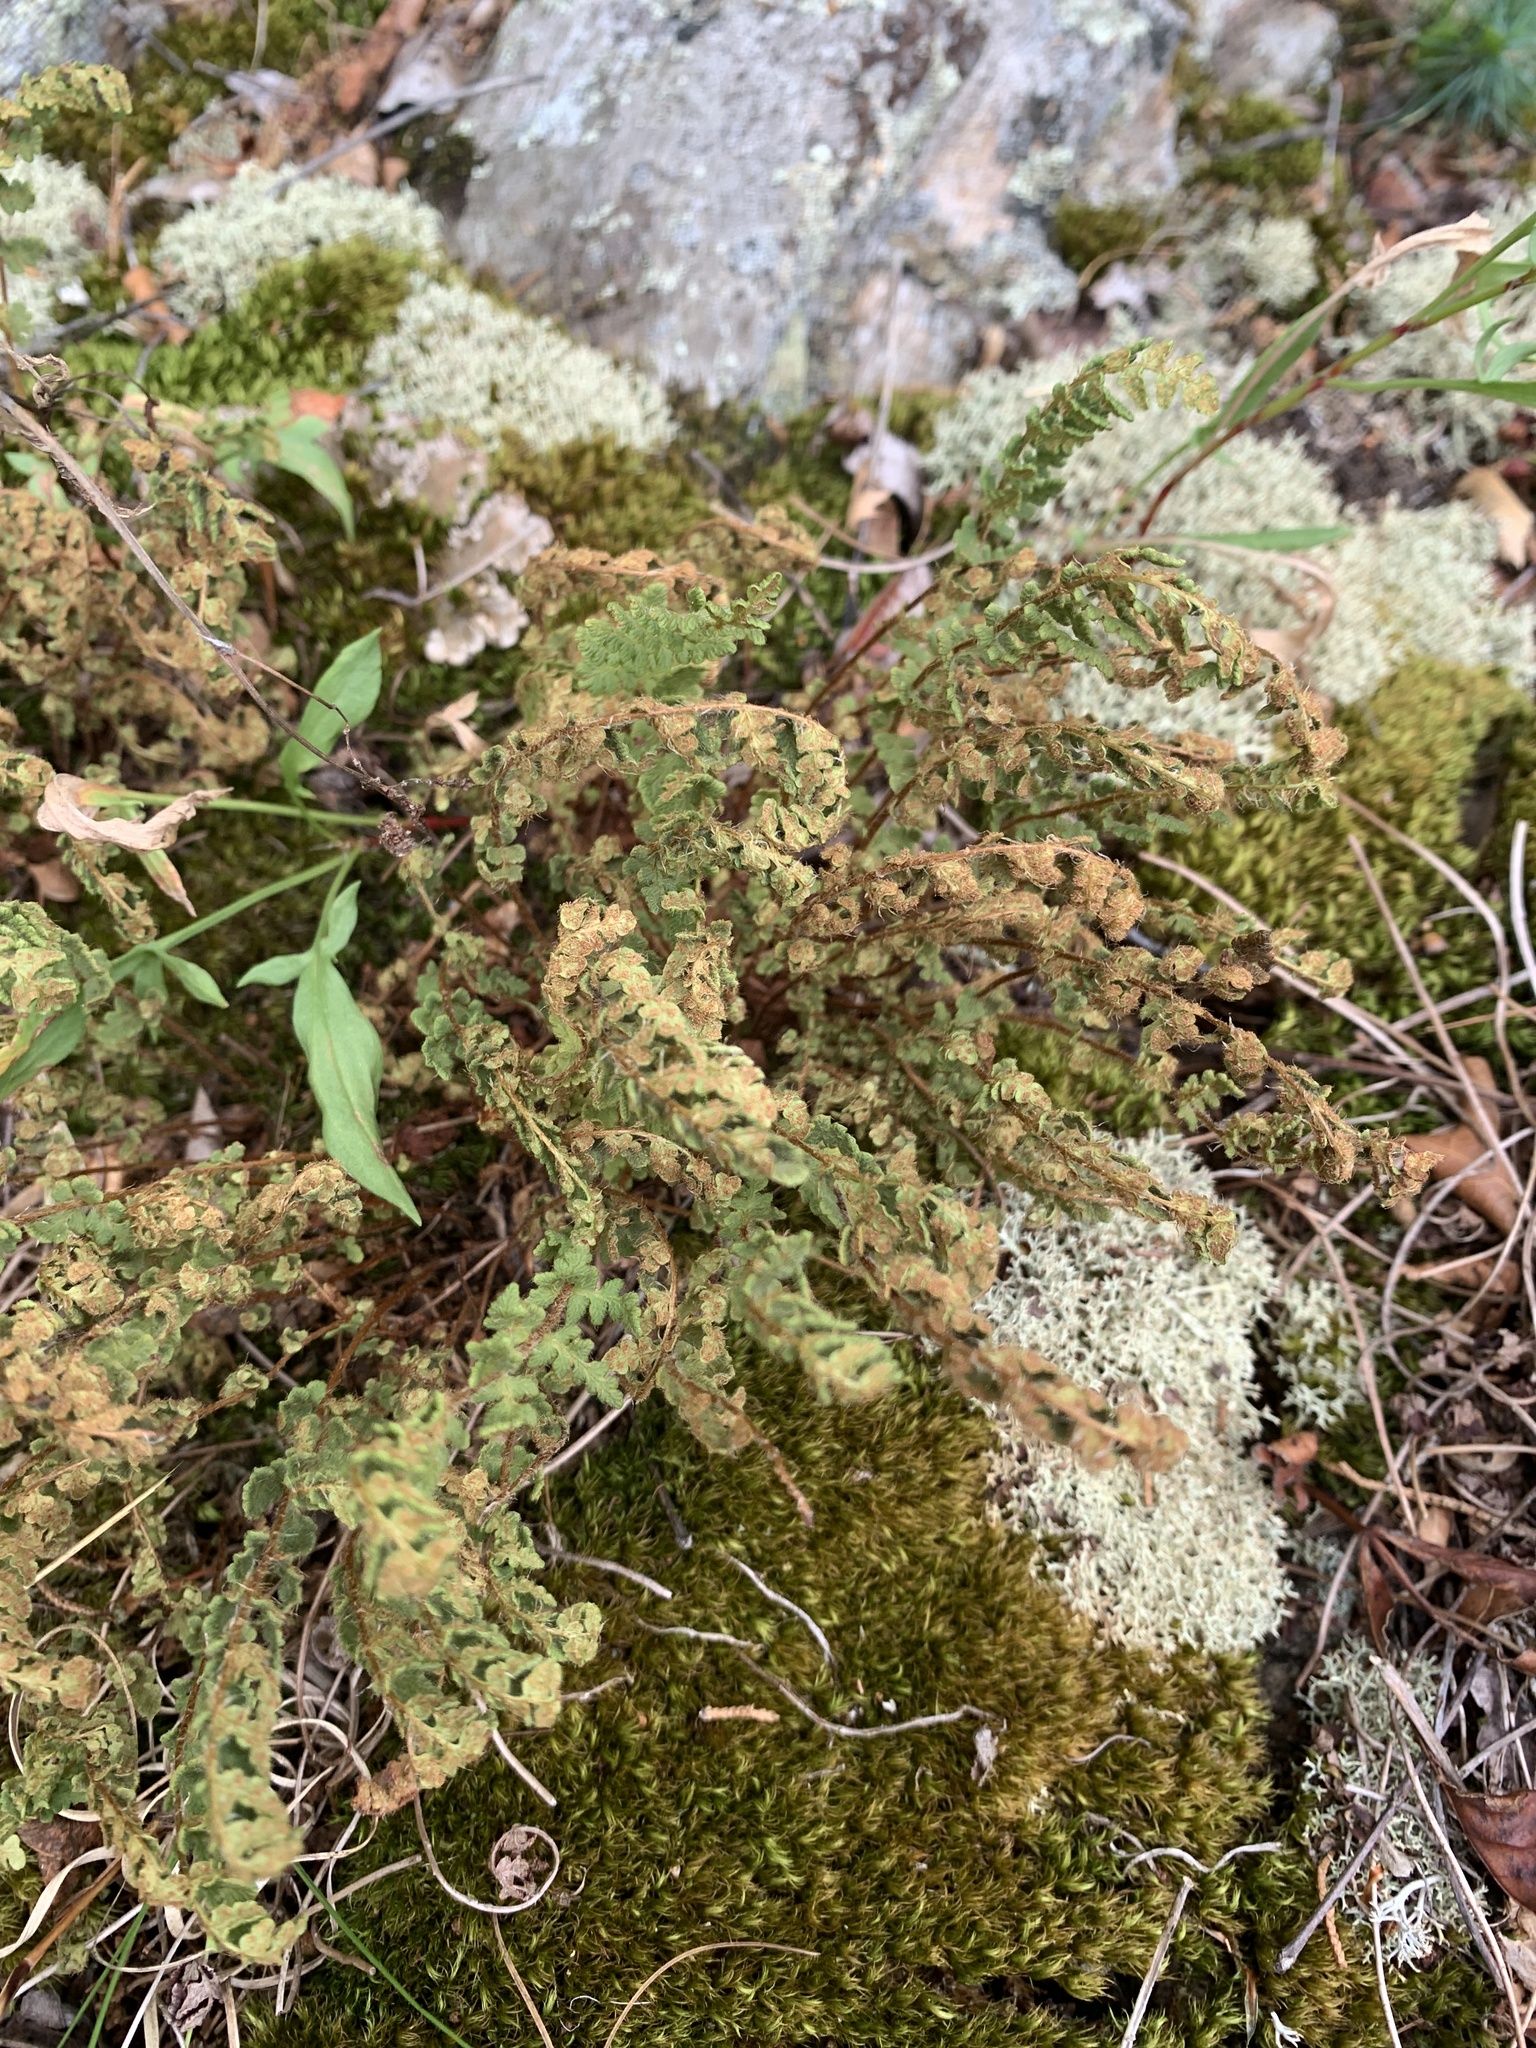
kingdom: Plantae
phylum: Tracheophyta
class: Polypodiopsida
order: Polypodiales
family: Woodsiaceae
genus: Woodsia
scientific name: Woodsia ilvensis
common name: Fragrant woodsia
